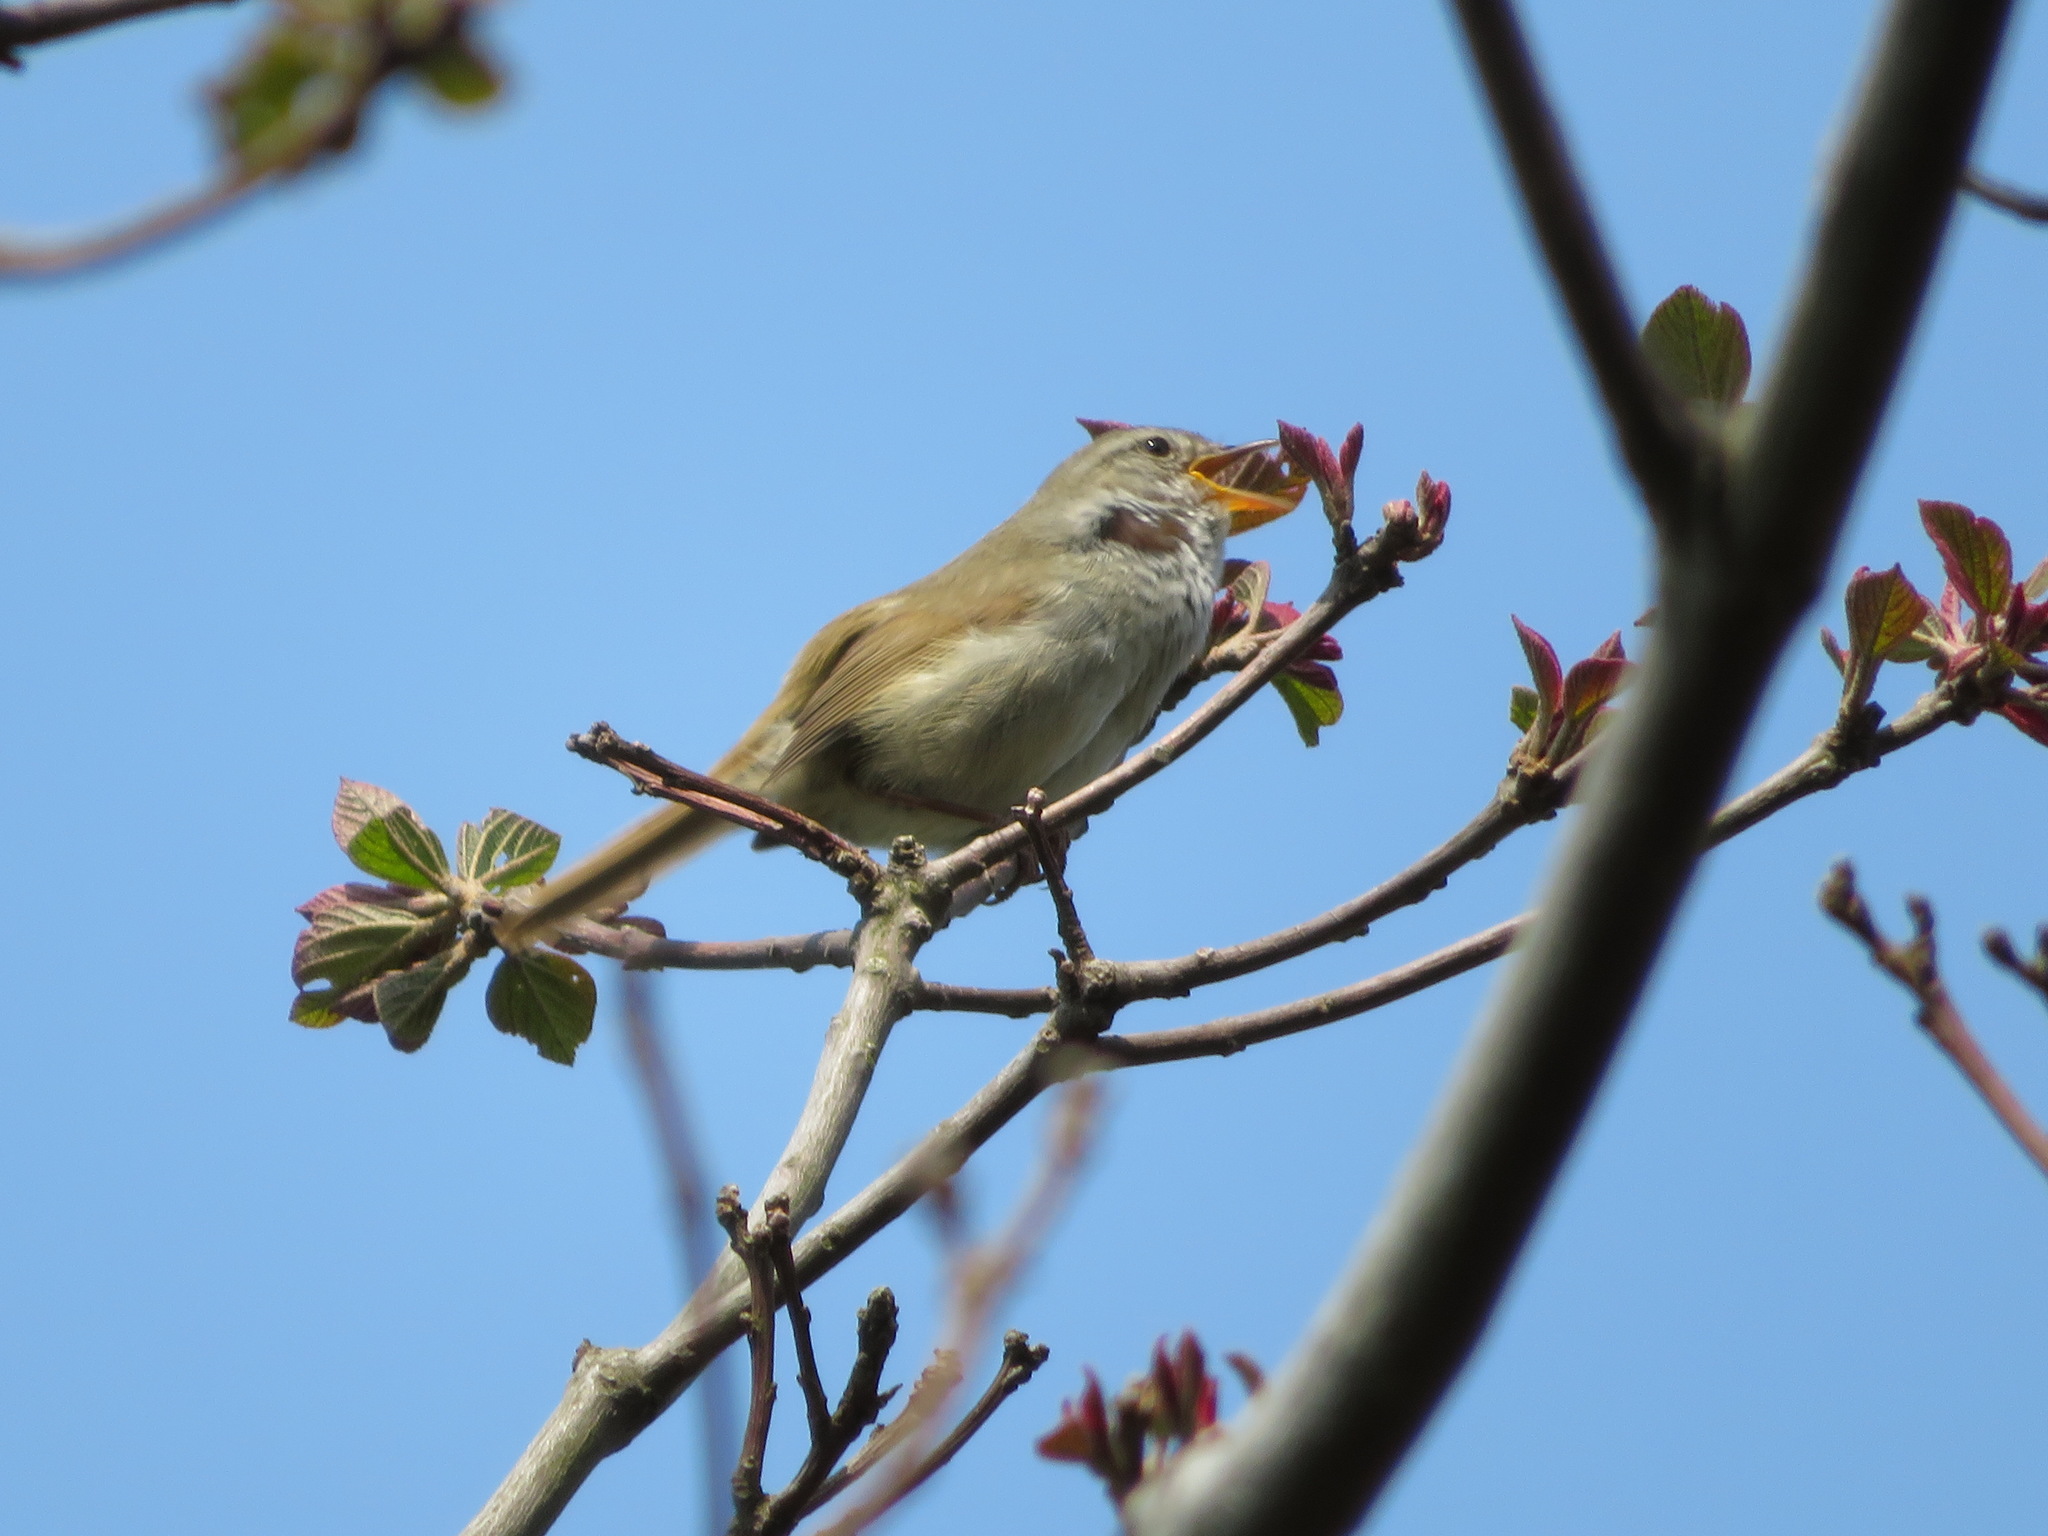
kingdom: Animalia
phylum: Chordata
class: Aves
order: Passeriformes
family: Cettiidae
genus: Horornis
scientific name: Horornis diphone
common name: Japanese bush warbler
